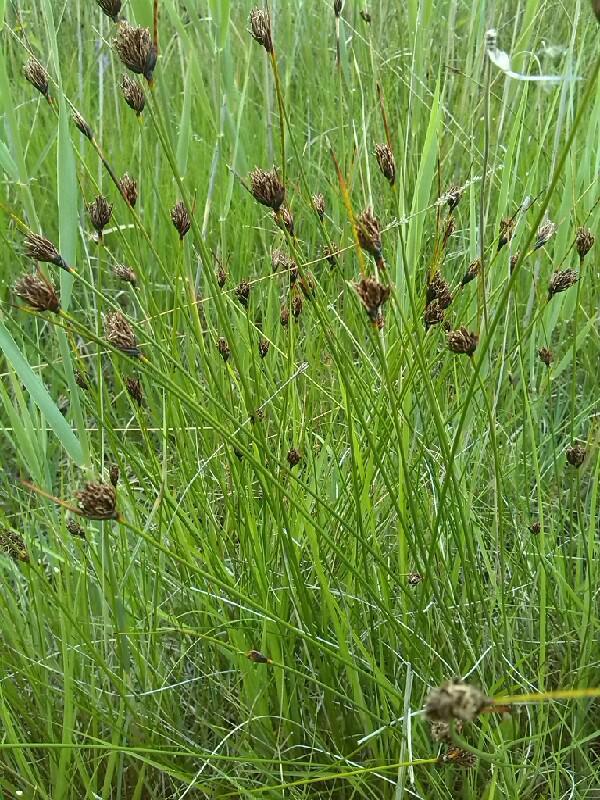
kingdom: Plantae
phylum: Tracheophyta
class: Liliopsida
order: Poales
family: Cyperaceae
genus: Schoenus
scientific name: Schoenus nigricans
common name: Black bog-rush
